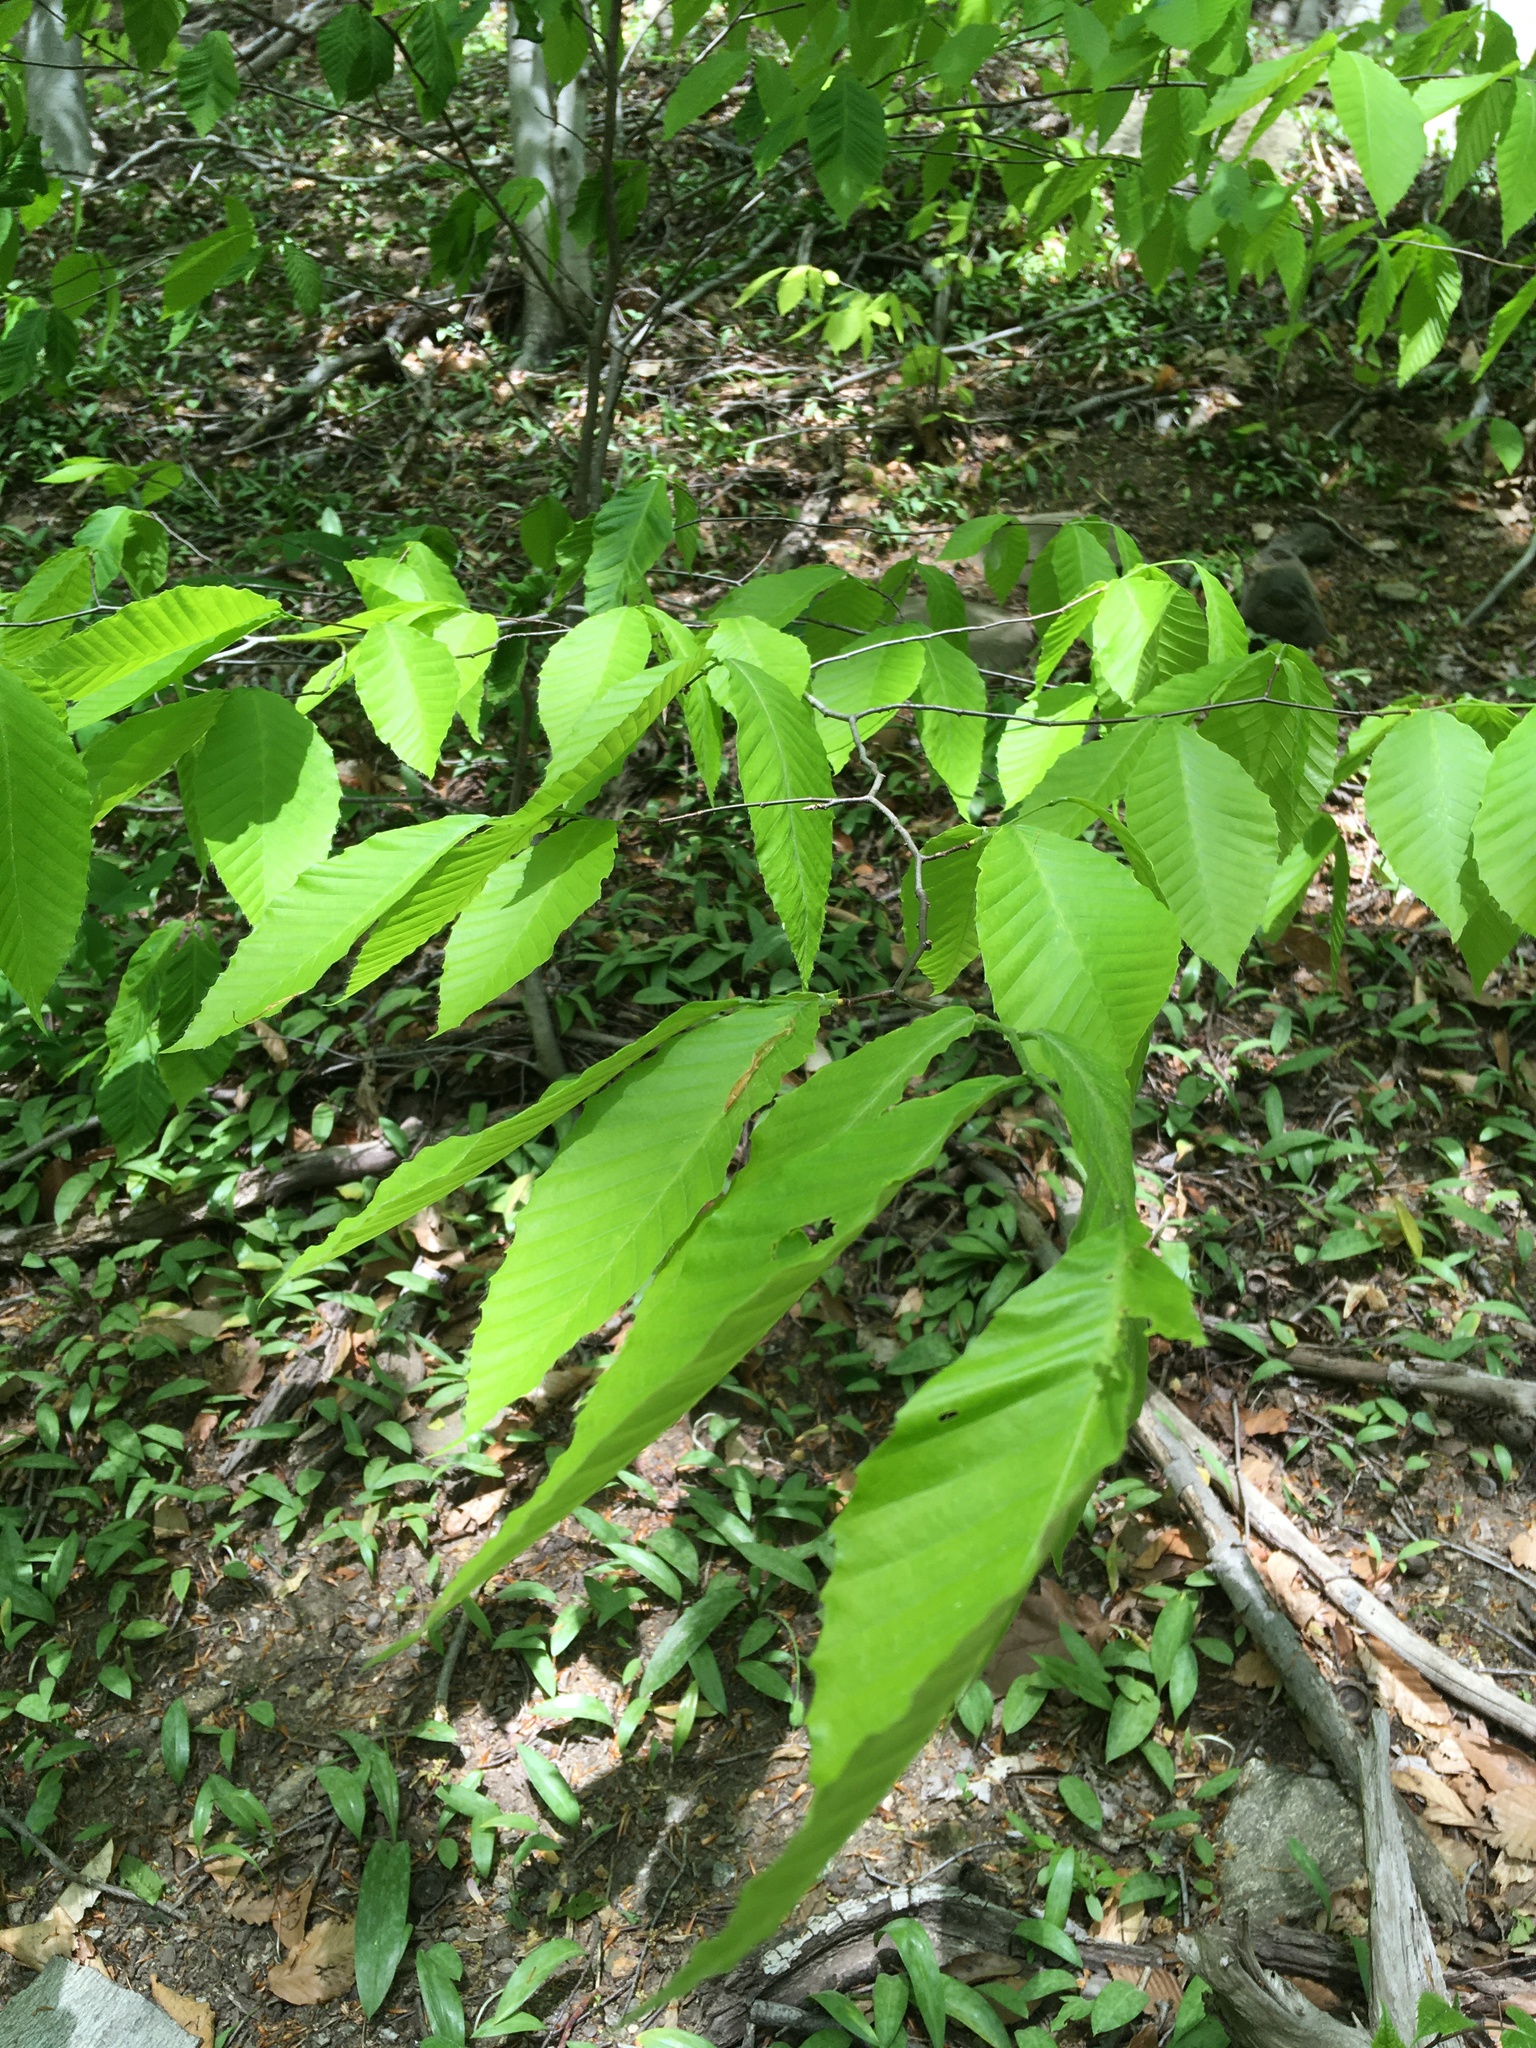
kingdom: Plantae
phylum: Tracheophyta
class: Magnoliopsida
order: Fagales
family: Fagaceae
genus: Fagus
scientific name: Fagus grandifolia
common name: American beech
